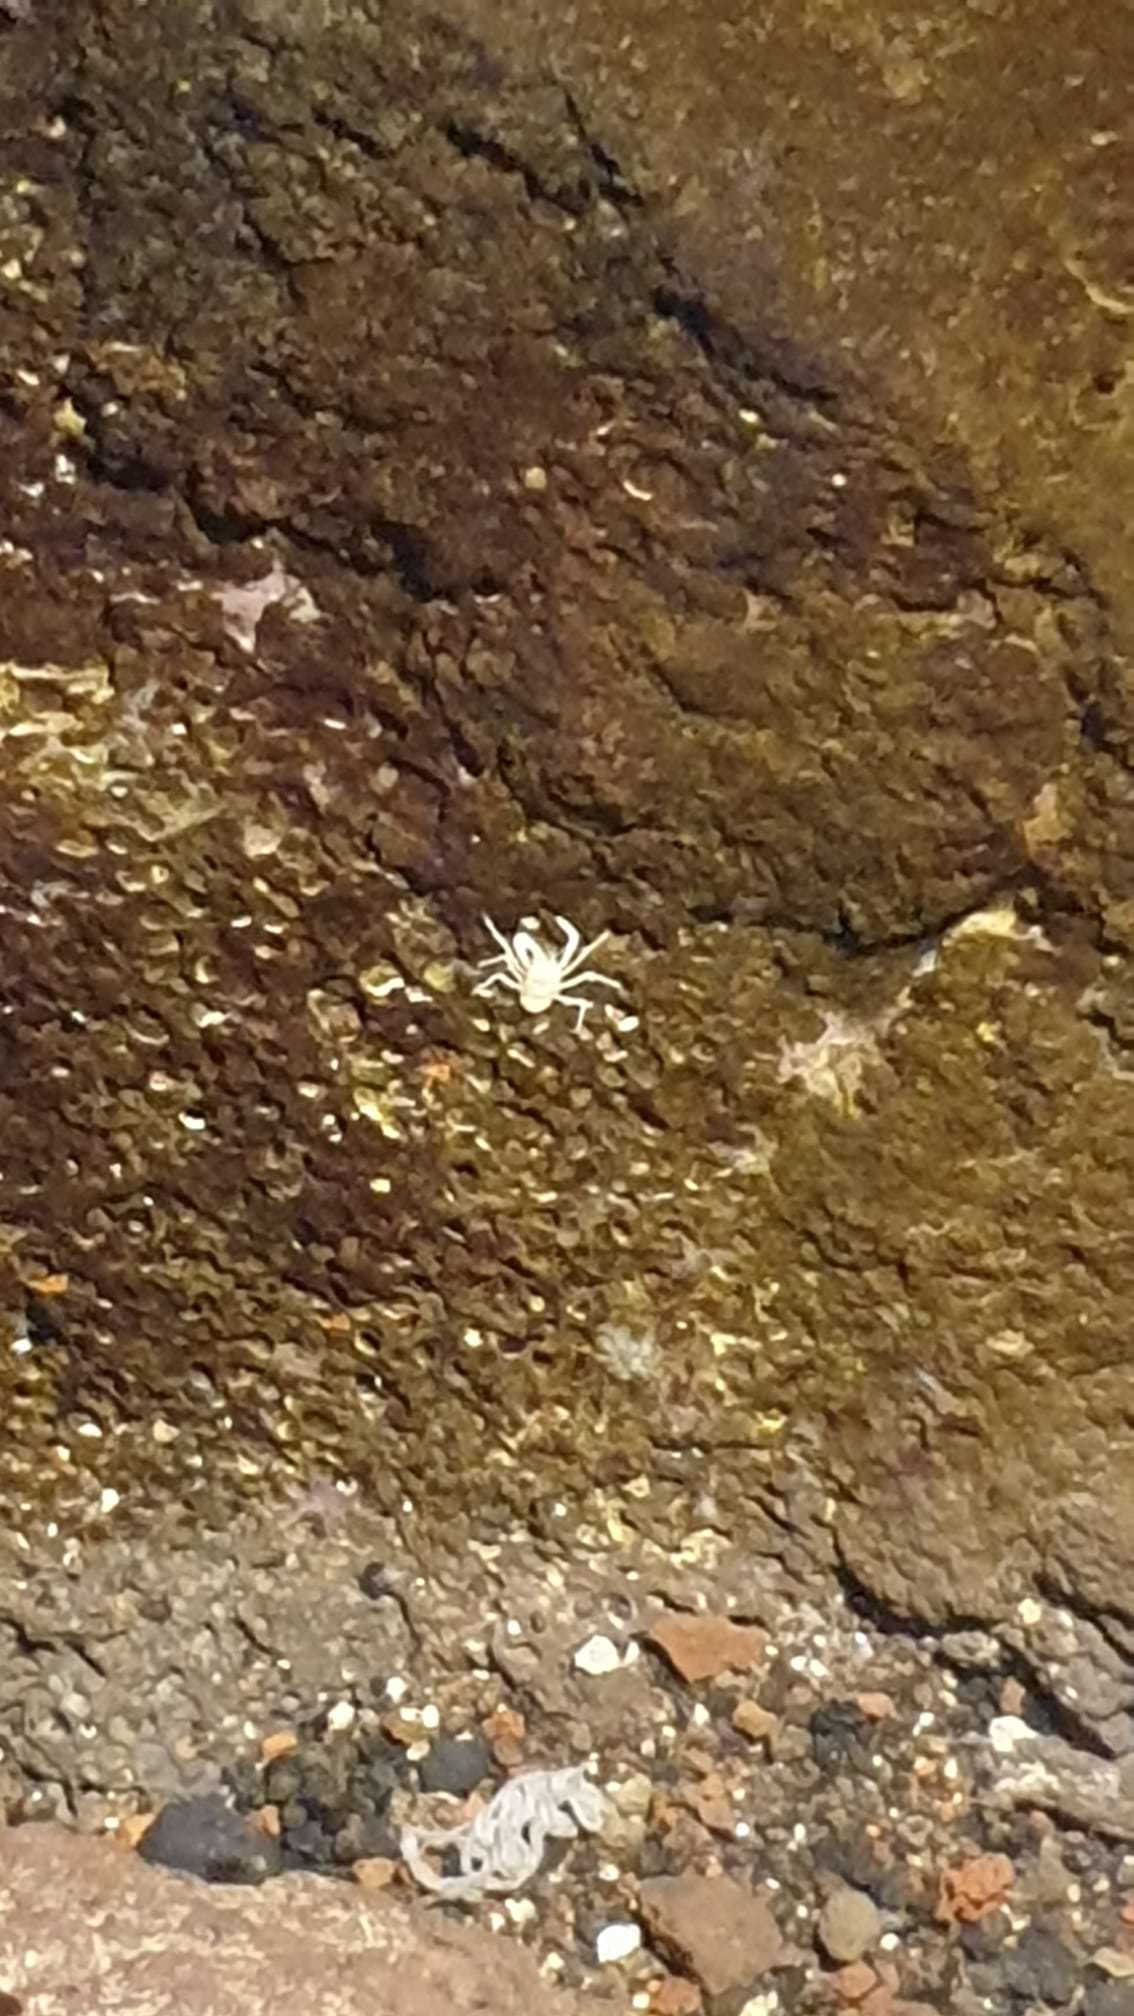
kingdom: Animalia
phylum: Arthropoda
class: Malacostraca
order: Decapoda
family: Munidopsidae
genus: Munidopsis
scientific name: Munidopsis polymorpha
